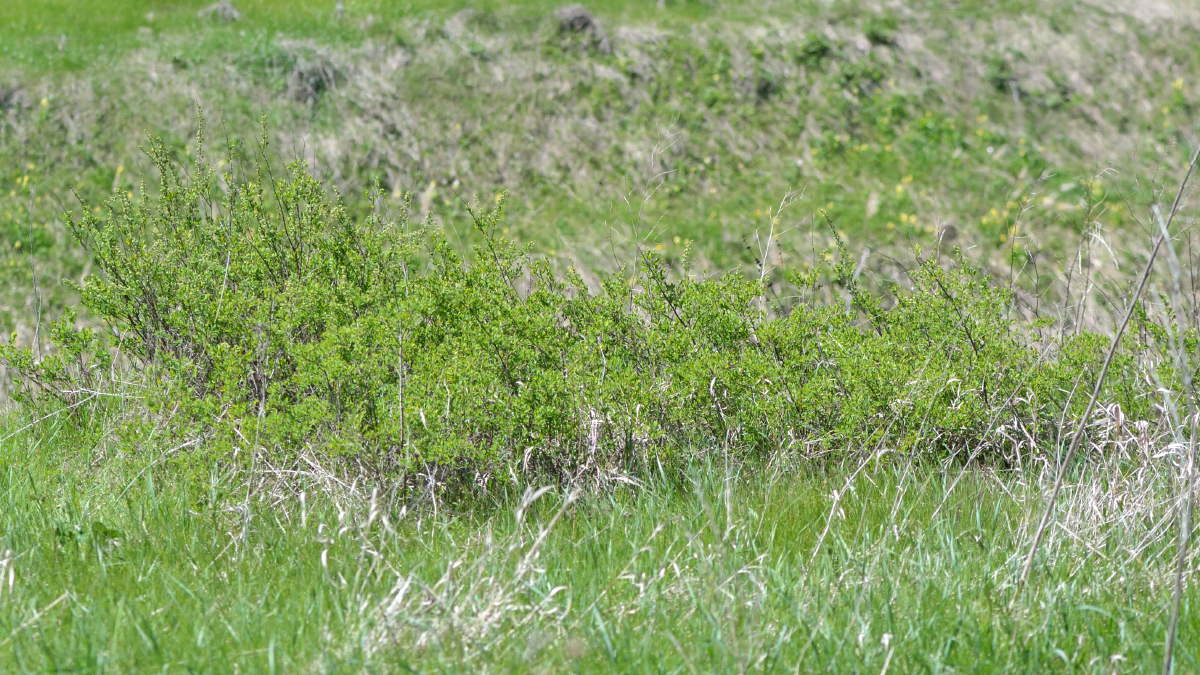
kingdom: Plantae
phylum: Tracheophyta
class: Magnoliopsida
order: Rosales
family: Rosaceae
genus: Spiraea
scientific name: Spiraea crenata
